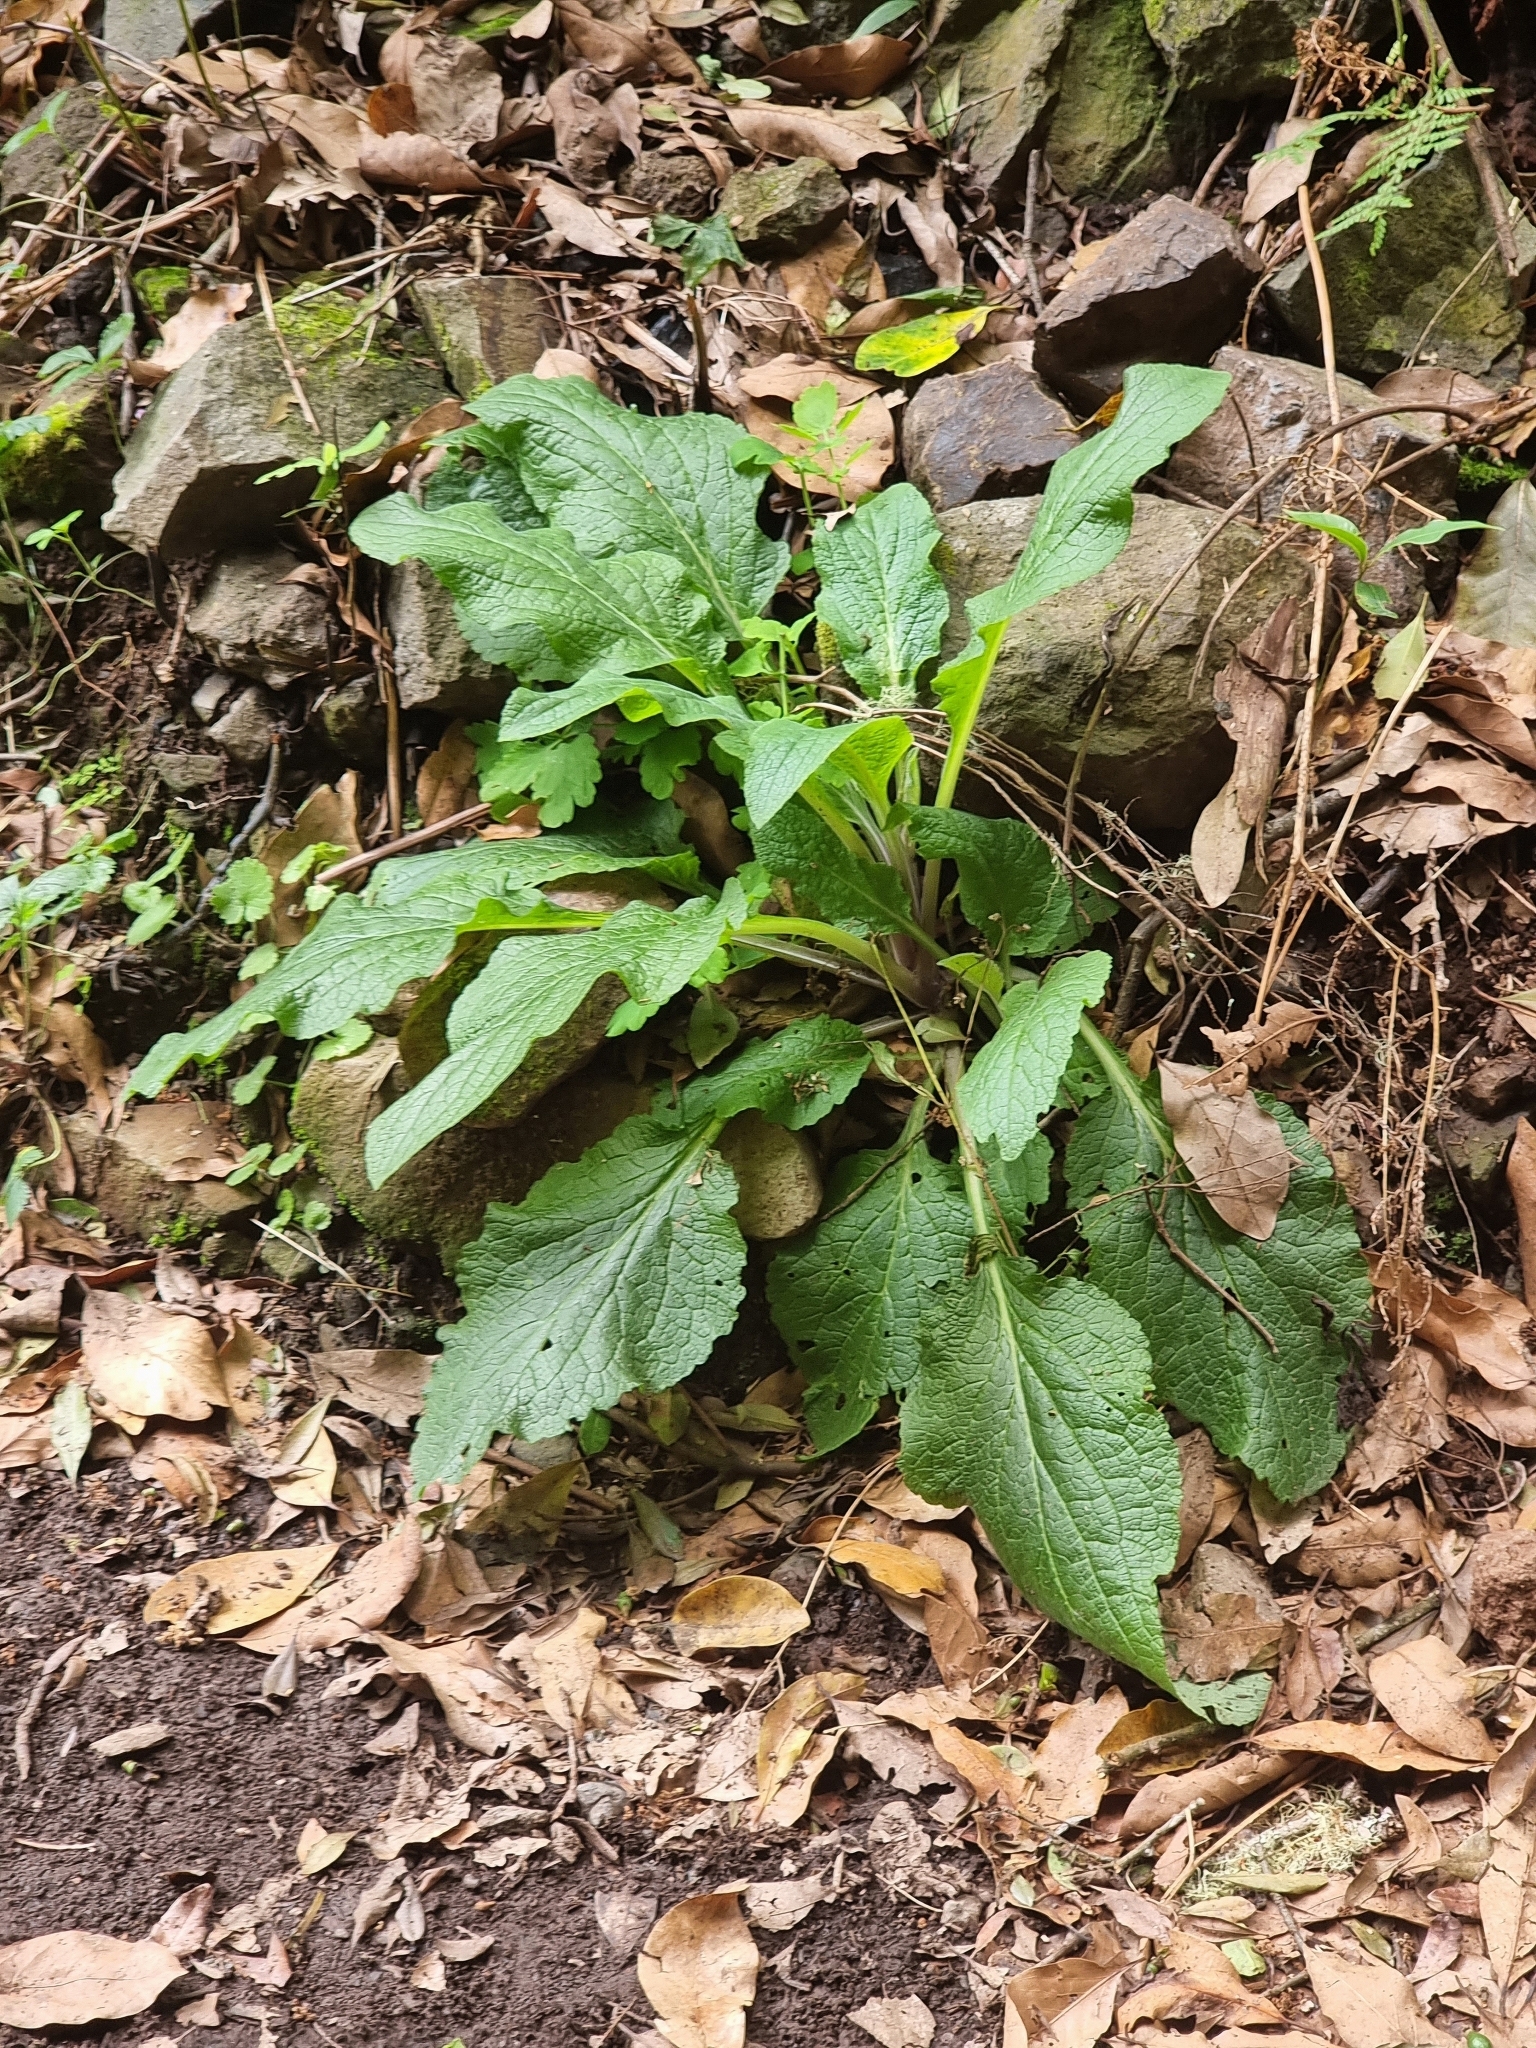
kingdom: Plantae
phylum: Tracheophyta
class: Magnoliopsida
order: Lamiales
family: Plantaginaceae
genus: Digitalis
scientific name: Digitalis purpurea
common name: Foxglove
